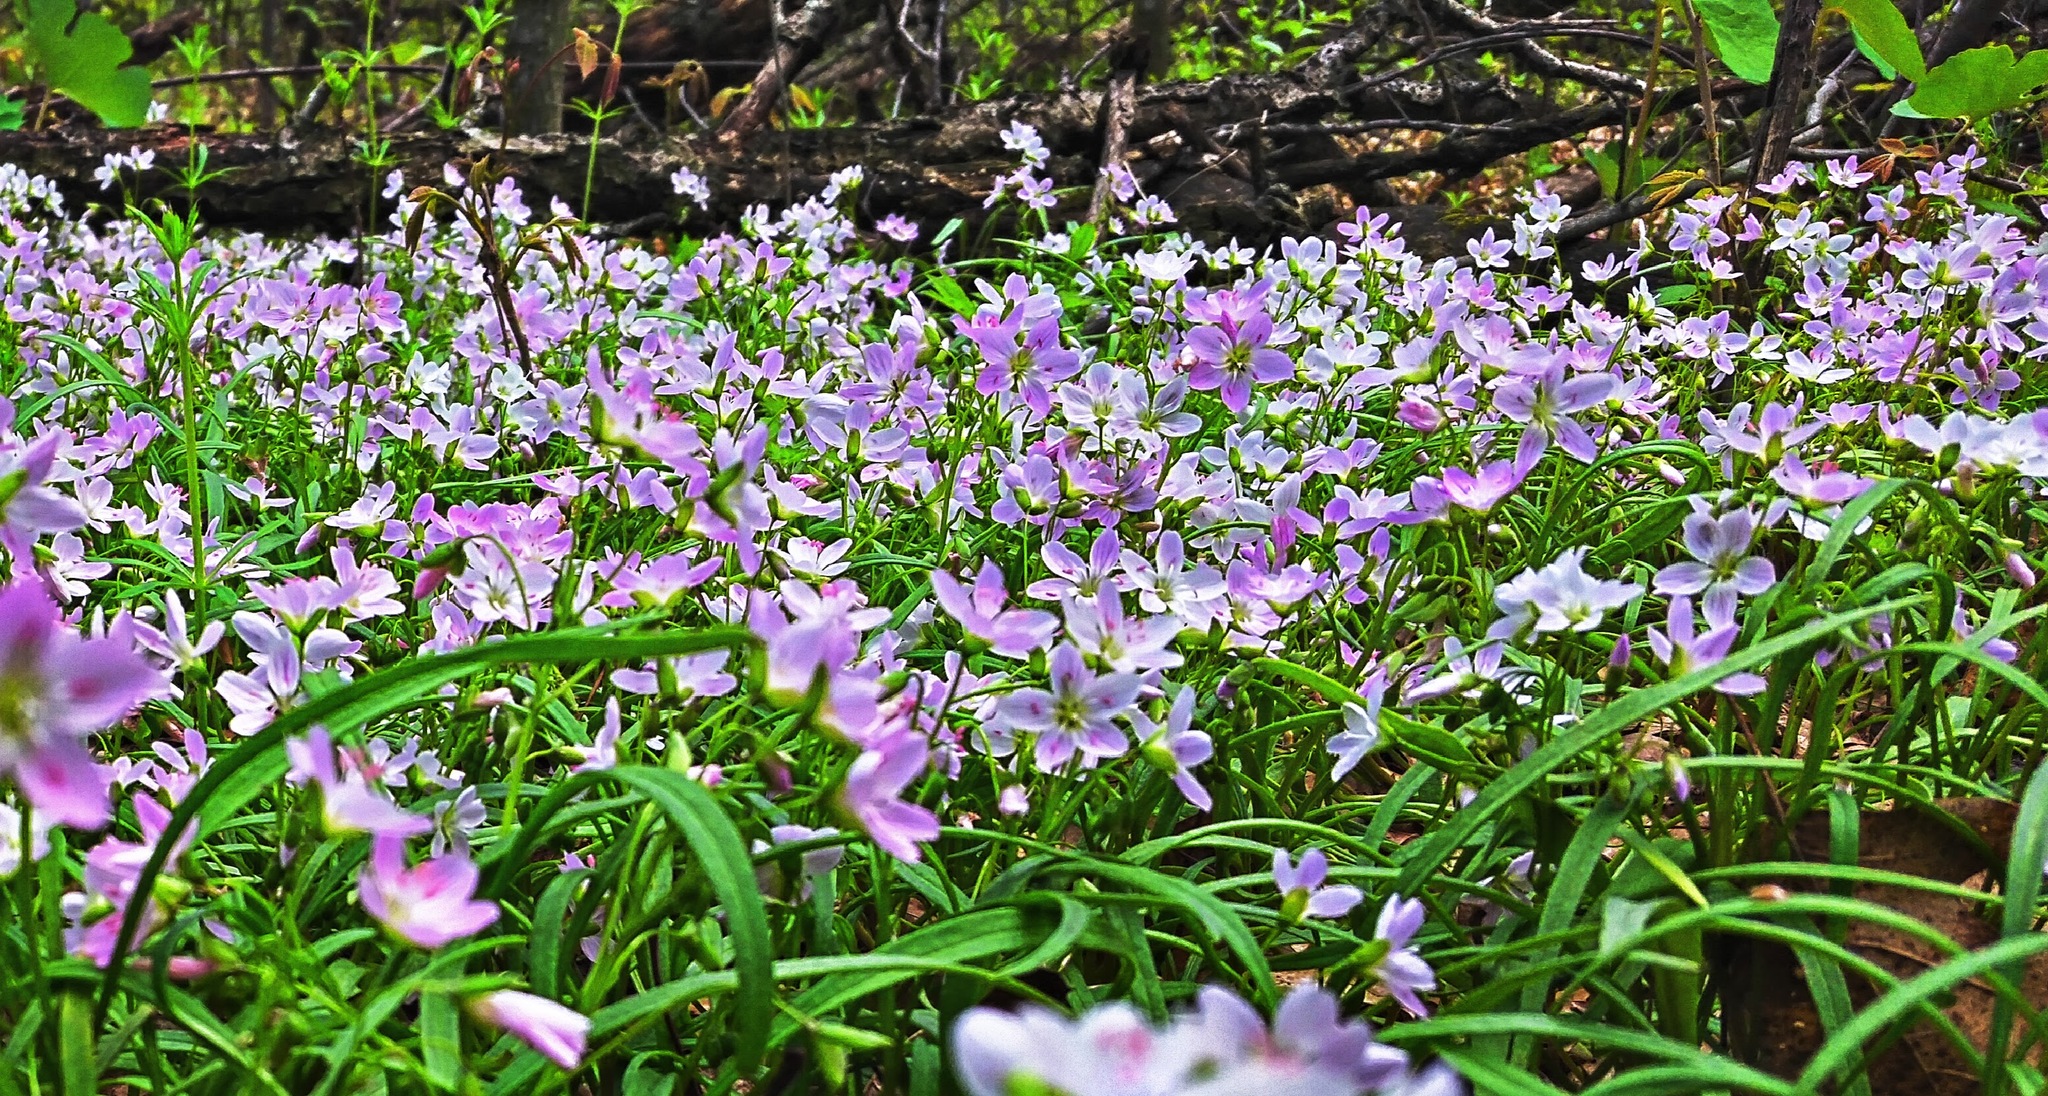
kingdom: Plantae
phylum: Tracheophyta
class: Magnoliopsida
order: Caryophyllales
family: Montiaceae
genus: Claytonia
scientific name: Claytonia virginica
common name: Virginia springbeauty
